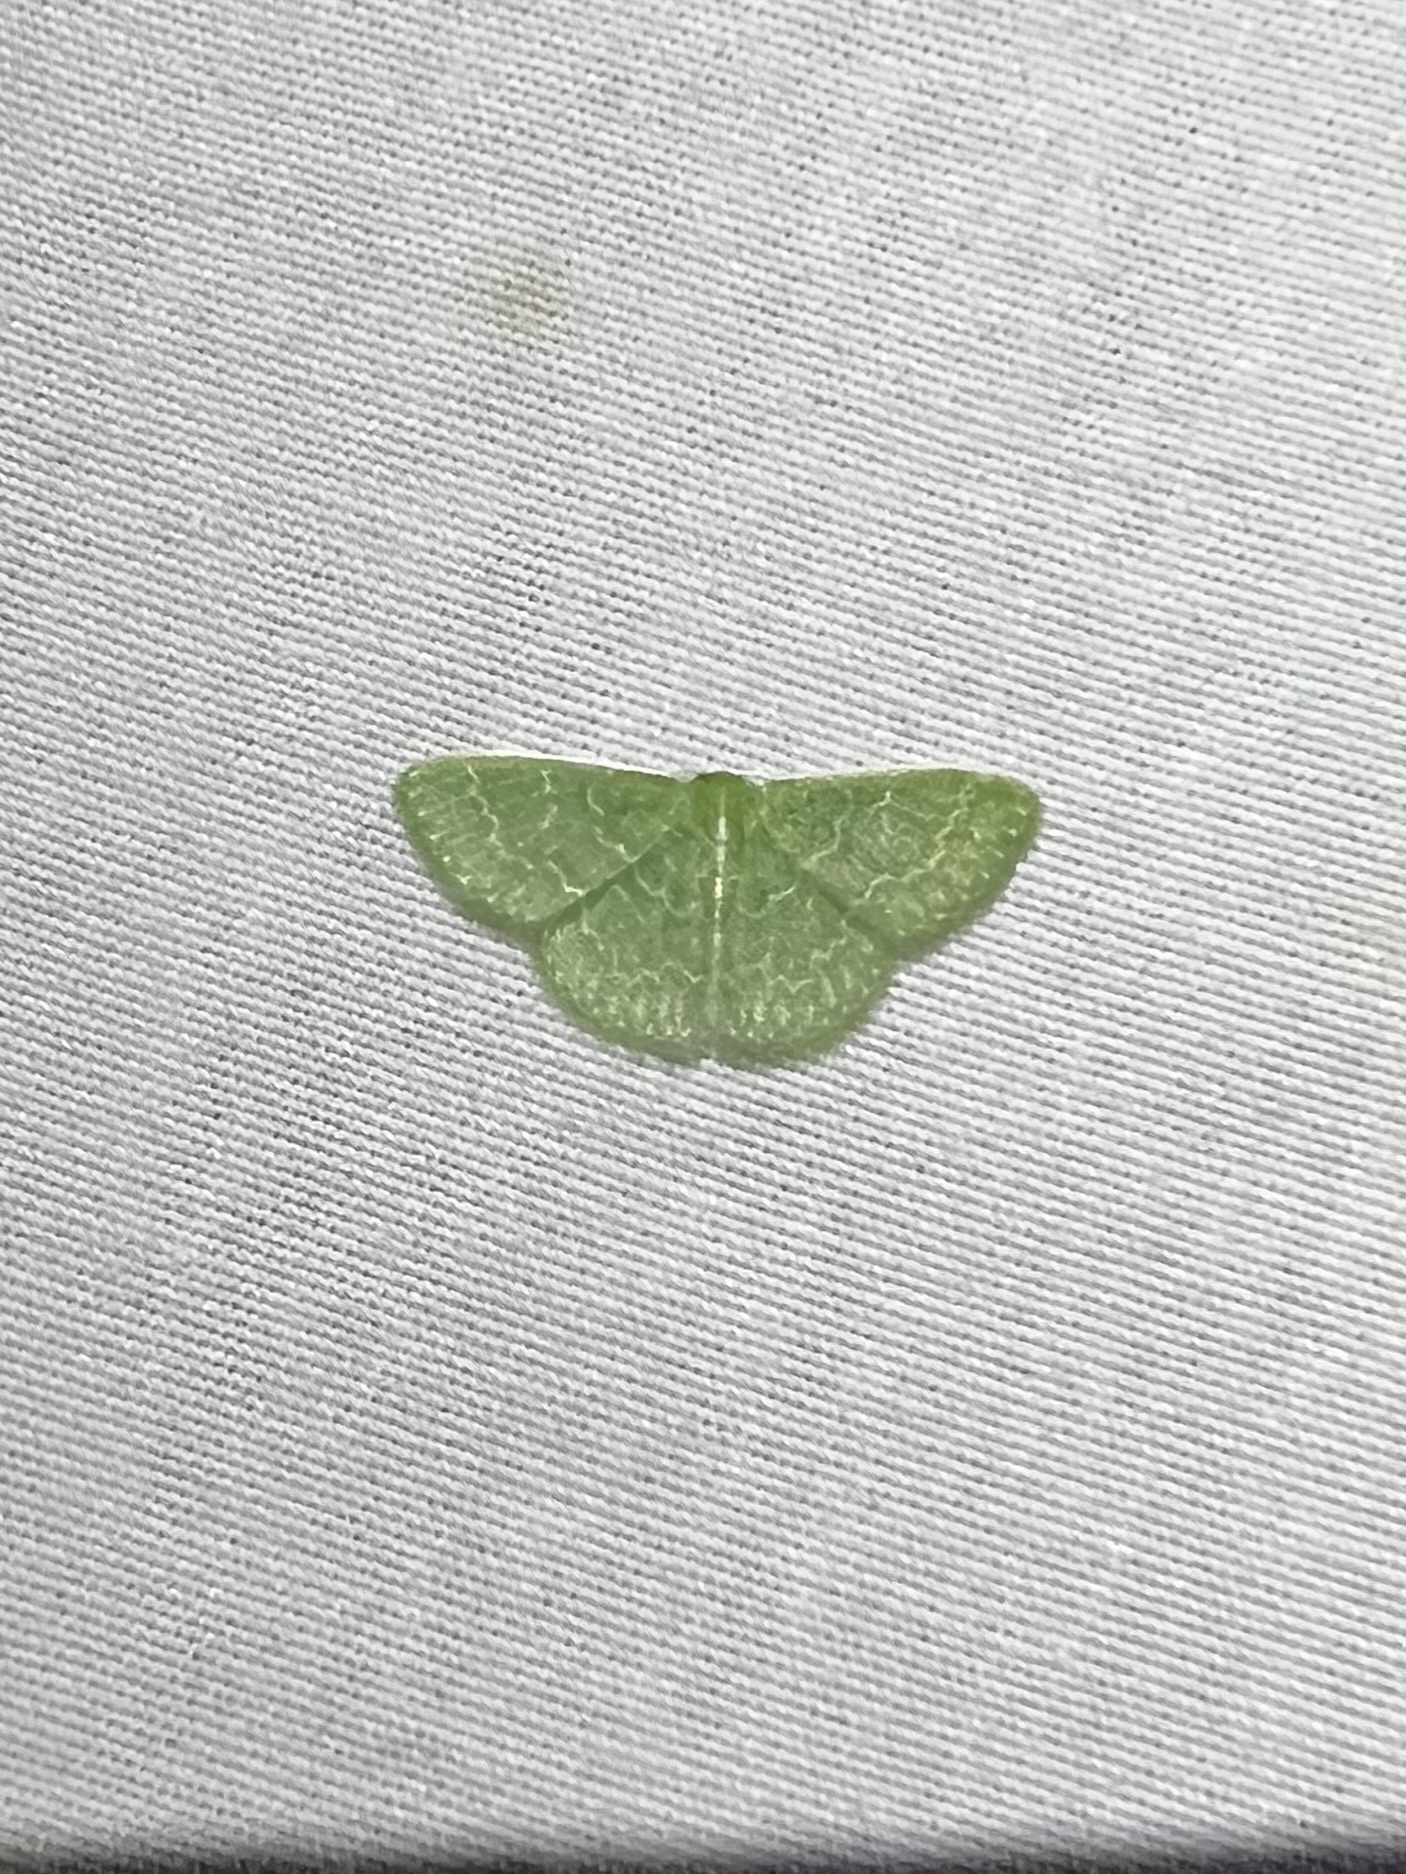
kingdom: Animalia
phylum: Arthropoda
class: Insecta
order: Lepidoptera
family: Geometridae
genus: Synchlora
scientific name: Synchlora frondaria
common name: Southern emerald
